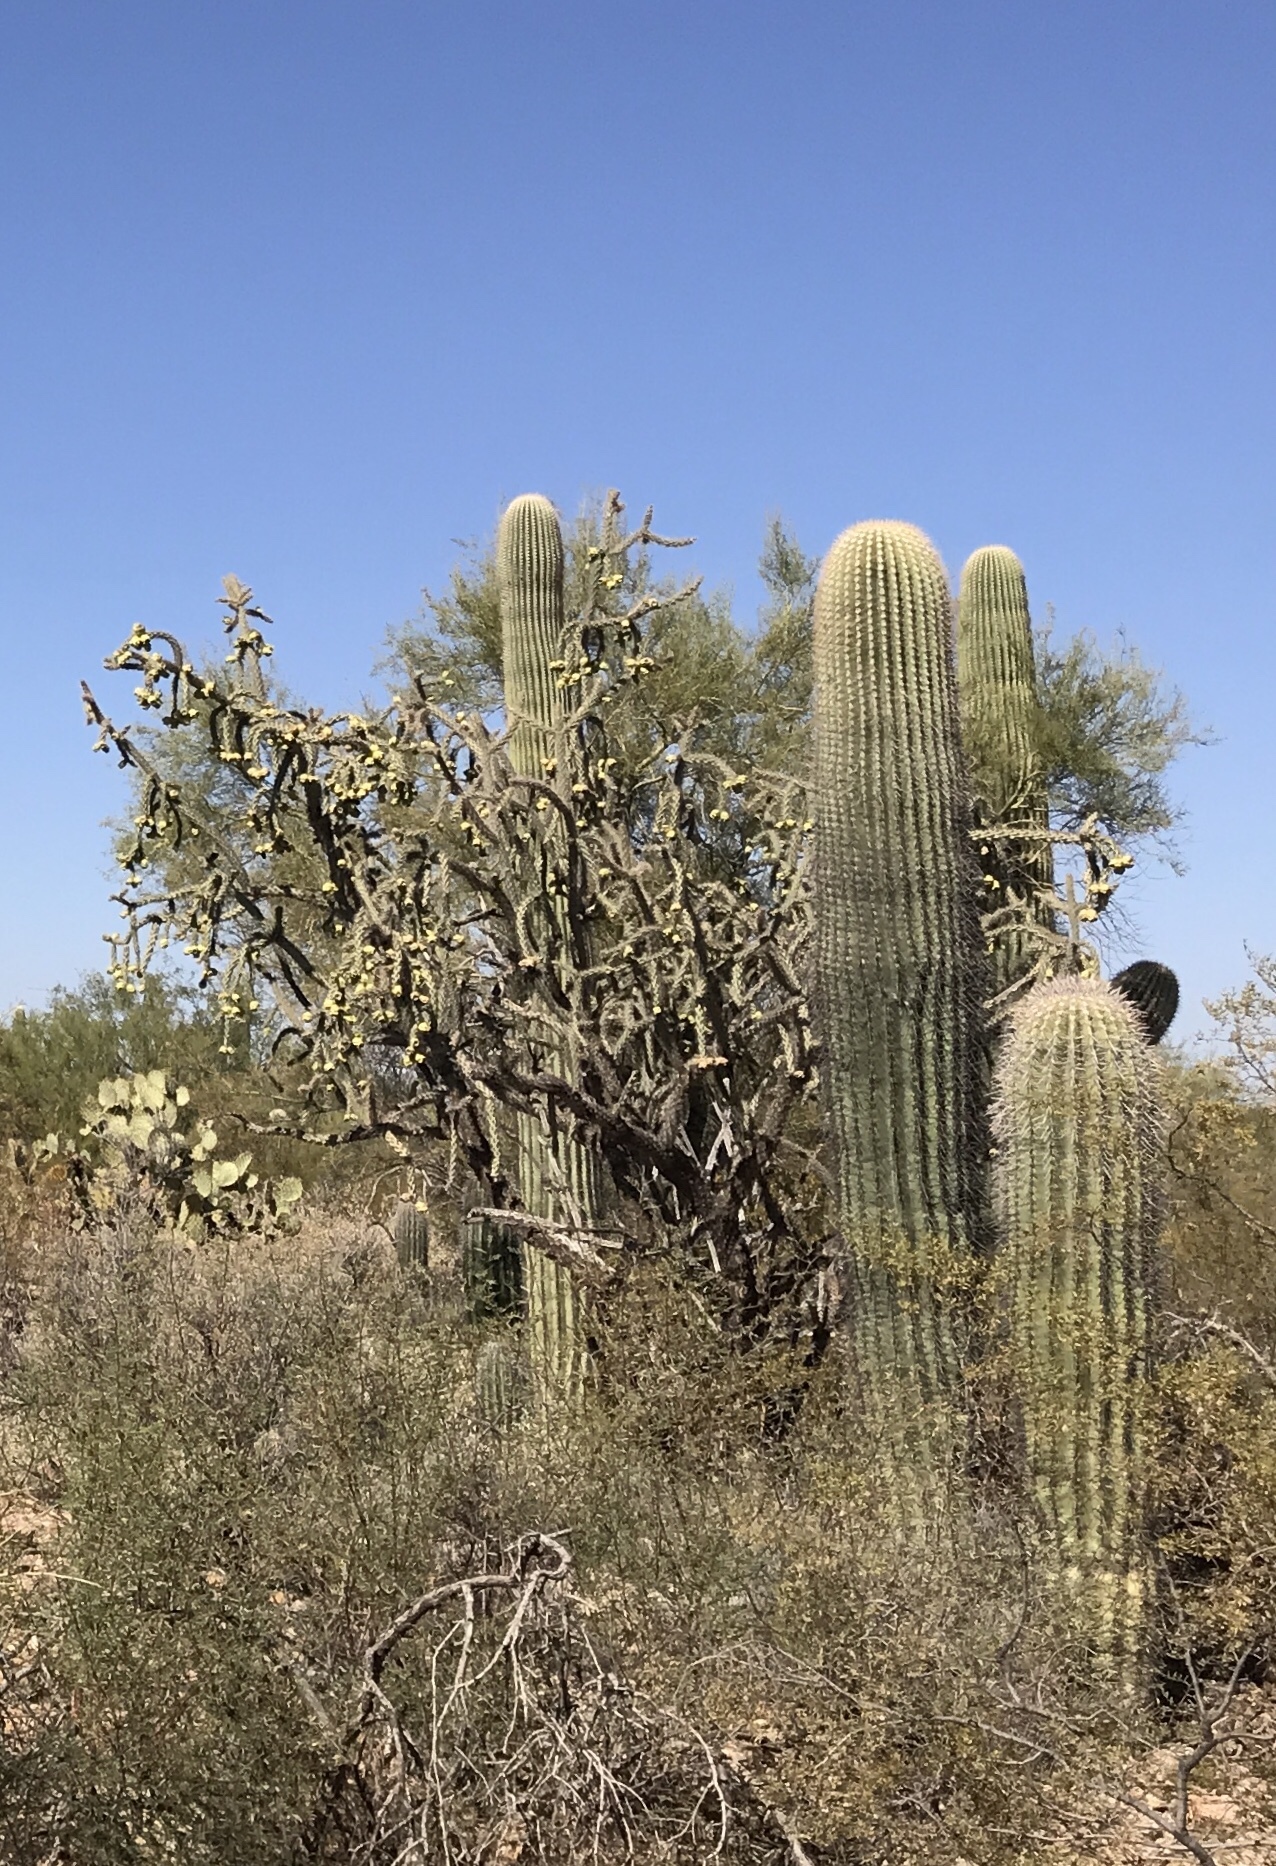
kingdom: Plantae
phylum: Tracheophyta
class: Magnoliopsida
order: Caryophyllales
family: Cactaceae
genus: Cylindropuntia
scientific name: Cylindropuntia thurberi
